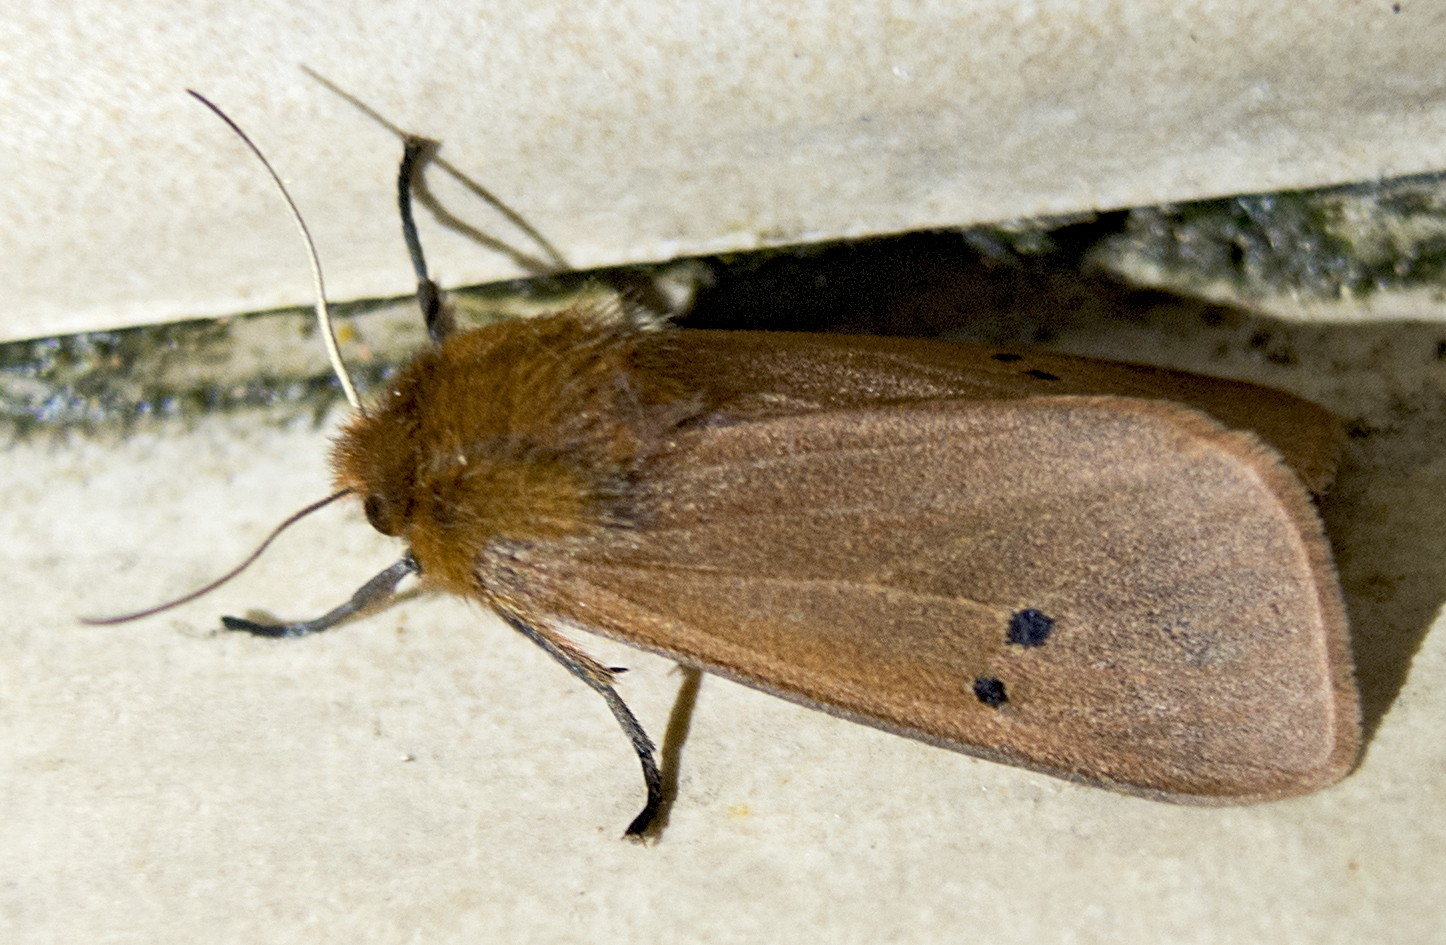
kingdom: Animalia
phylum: Arthropoda
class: Insecta
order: Lepidoptera
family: Erebidae
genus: Phragmatobia
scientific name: Phragmatobia fuliginosa
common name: Ruby tiger
